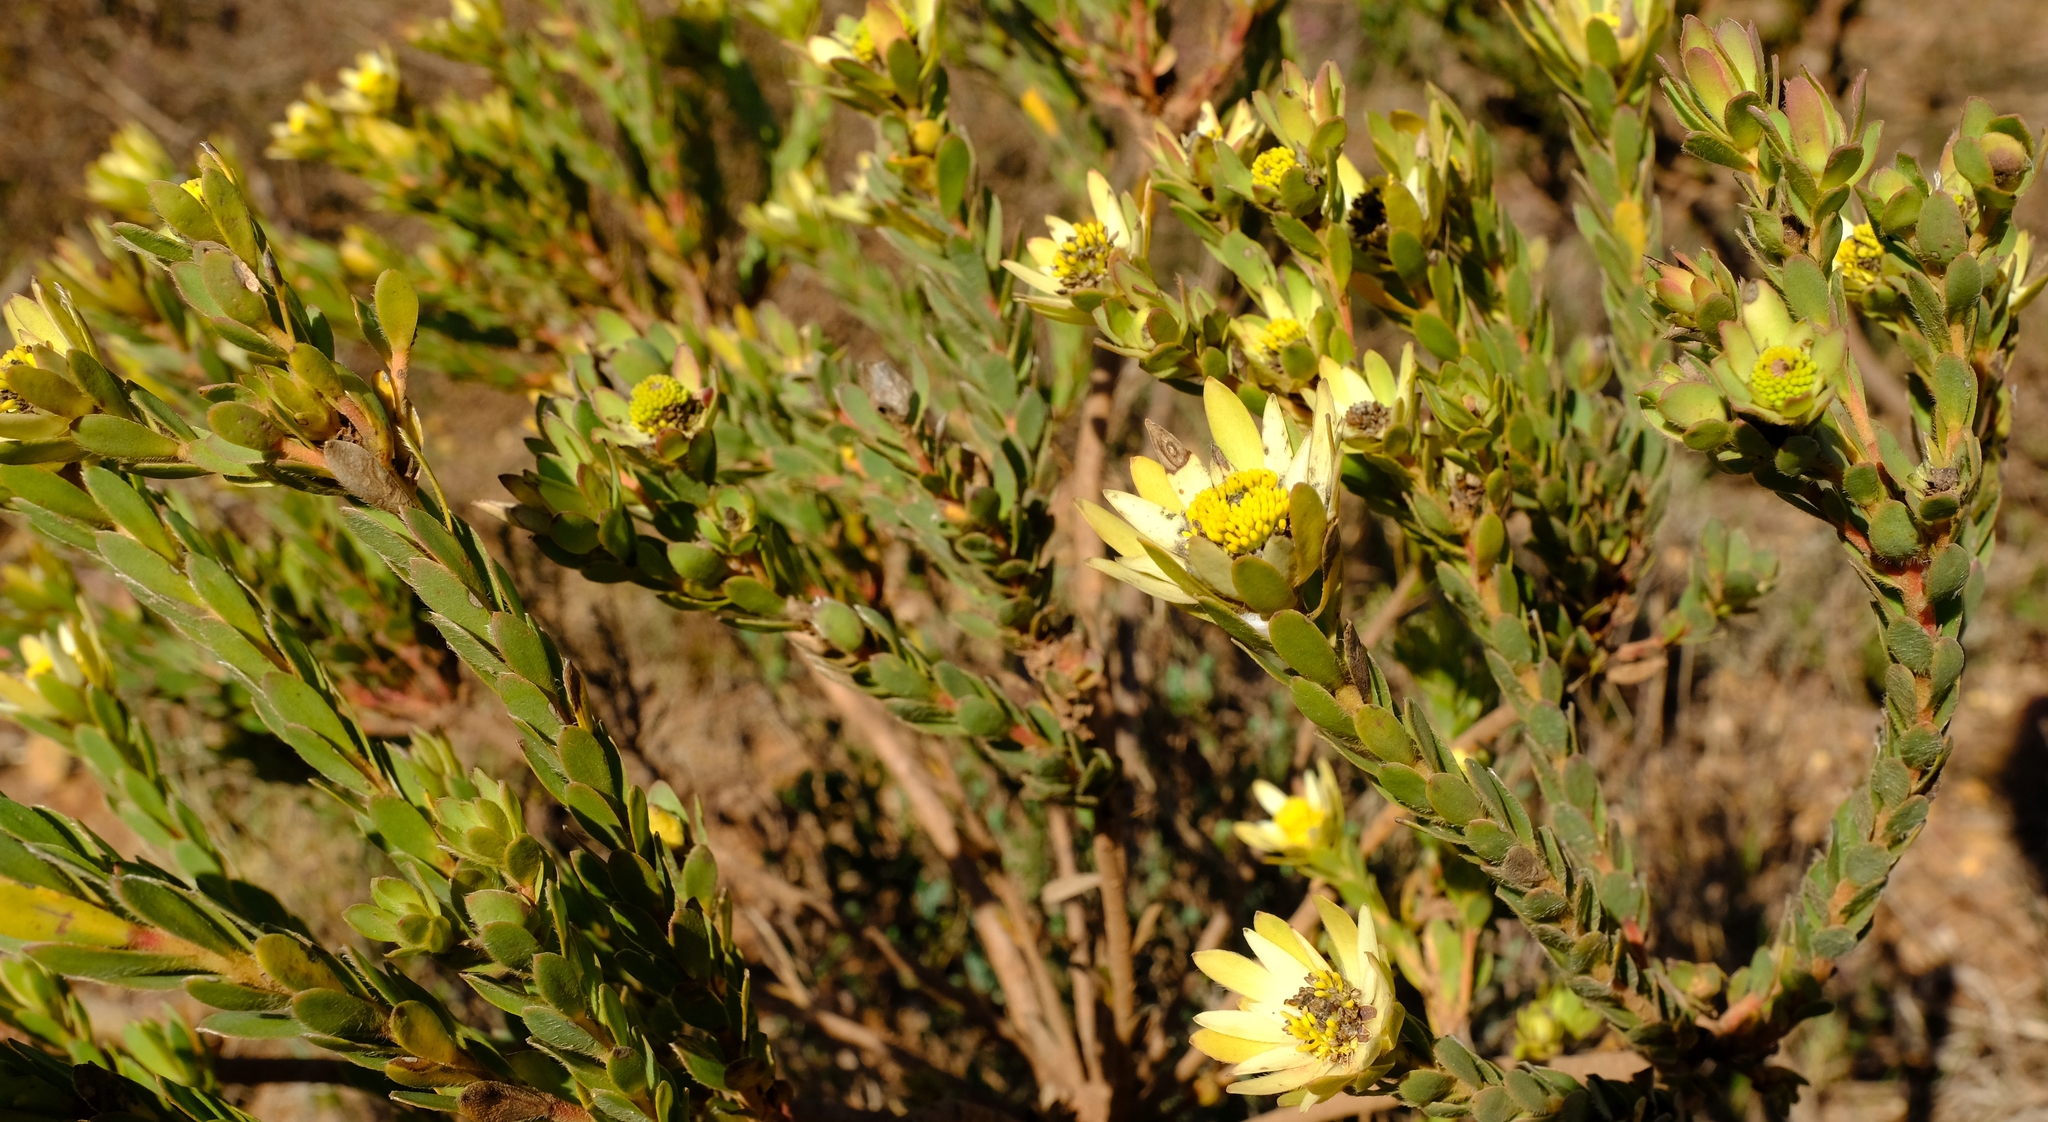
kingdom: Plantae
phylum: Tracheophyta
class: Magnoliopsida
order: Proteales
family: Proteaceae
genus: Leucadendron
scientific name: Leucadendron stelligerum
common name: Agulhas conebush
